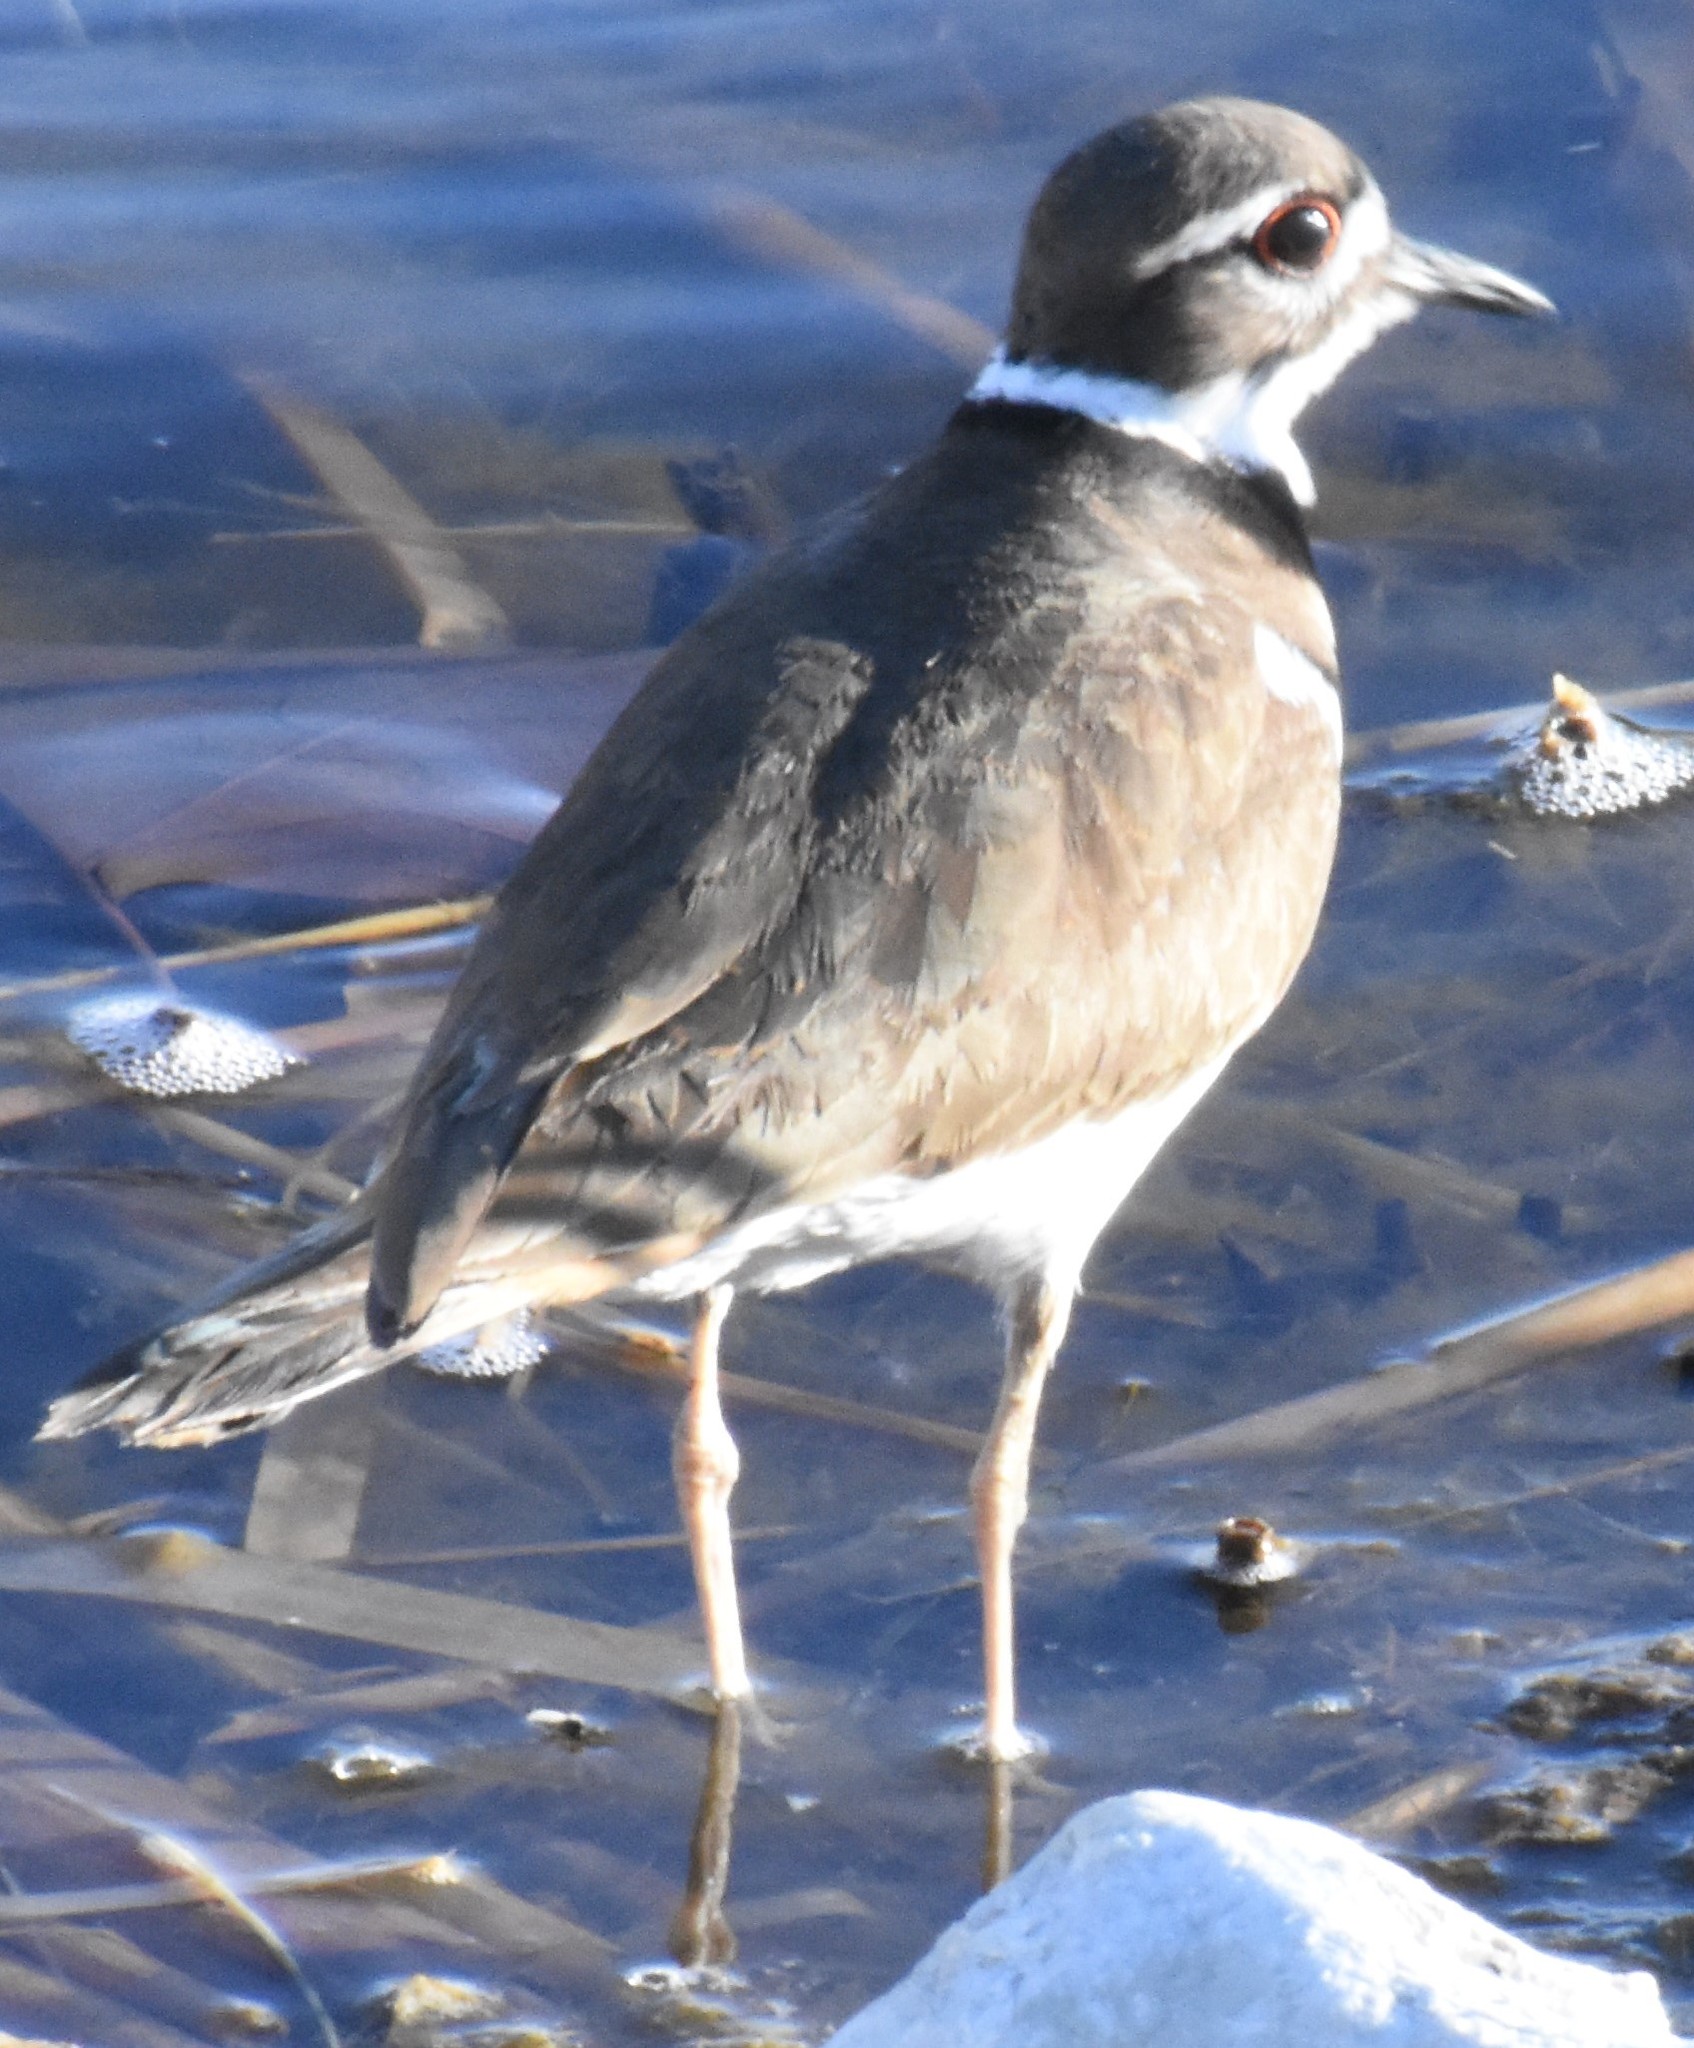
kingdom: Animalia
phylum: Chordata
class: Aves
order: Charadriiformes
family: Charadriidae
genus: Charadrius
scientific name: Charadrius vociferus
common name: Killdeer
